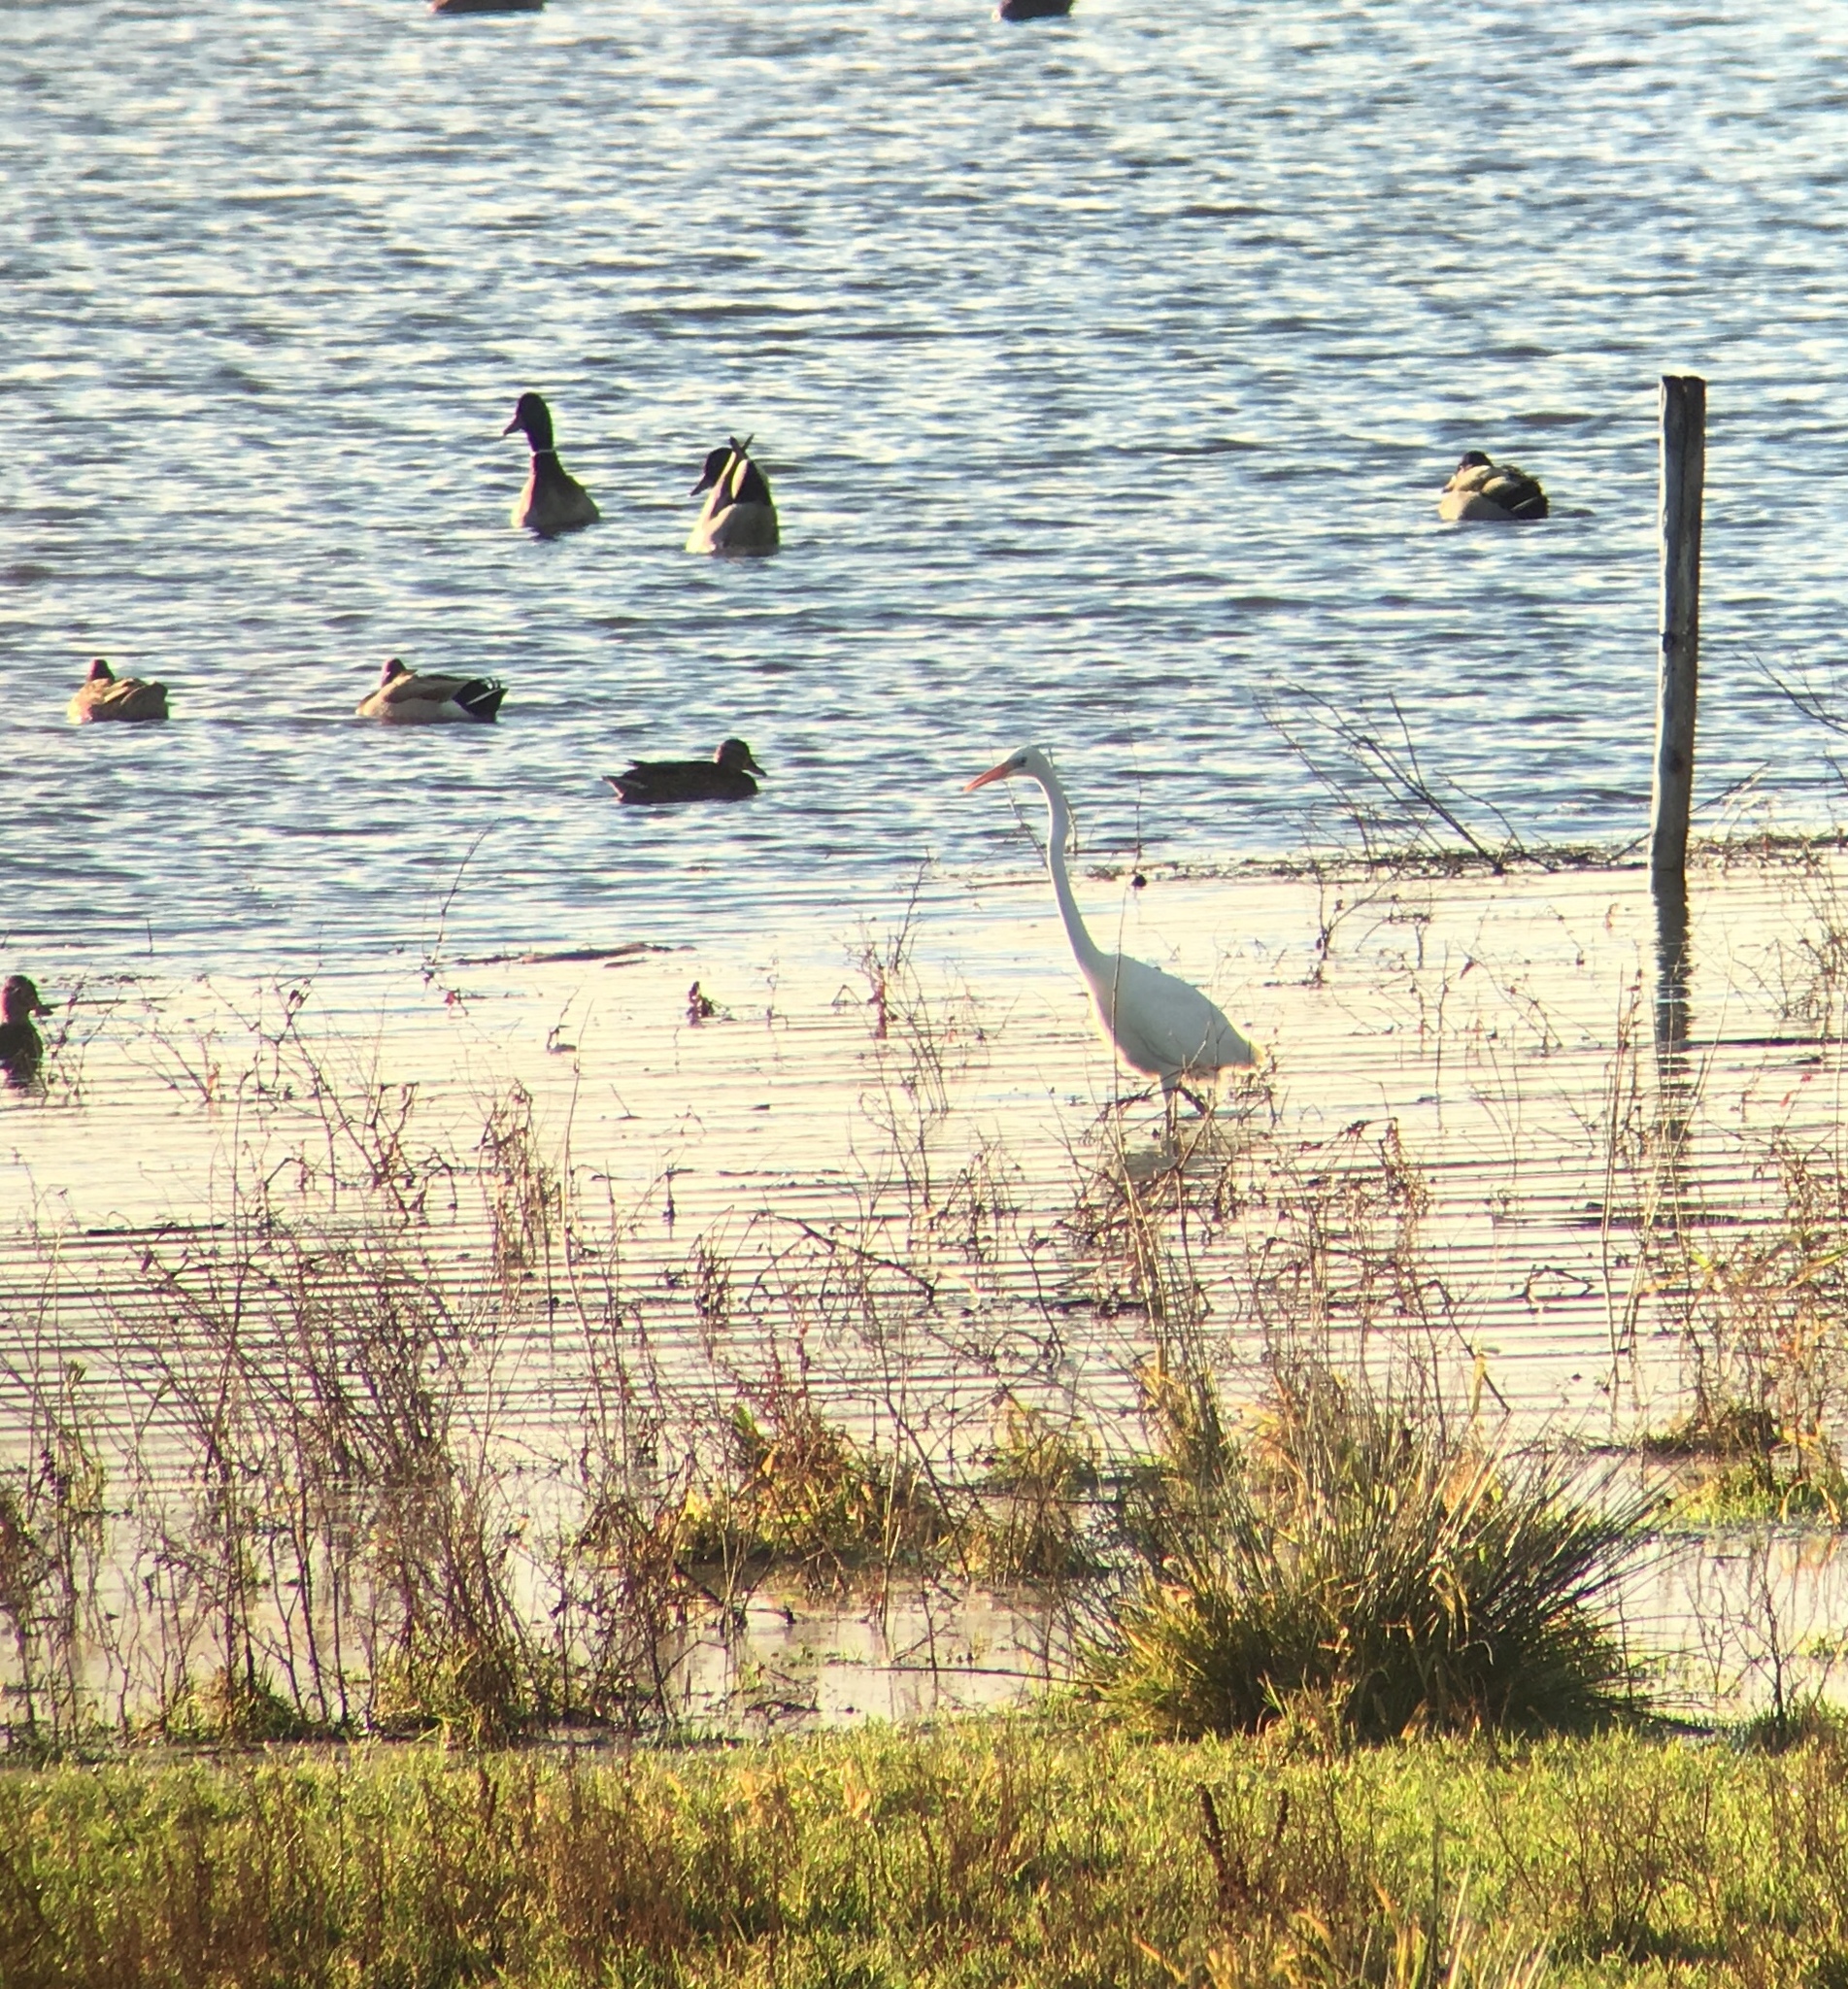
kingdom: Animalia
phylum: Chordata
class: Aves
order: Pelecaniformes
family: Ardeidae
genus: Ardea
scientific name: Ardea alba
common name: Great egret
